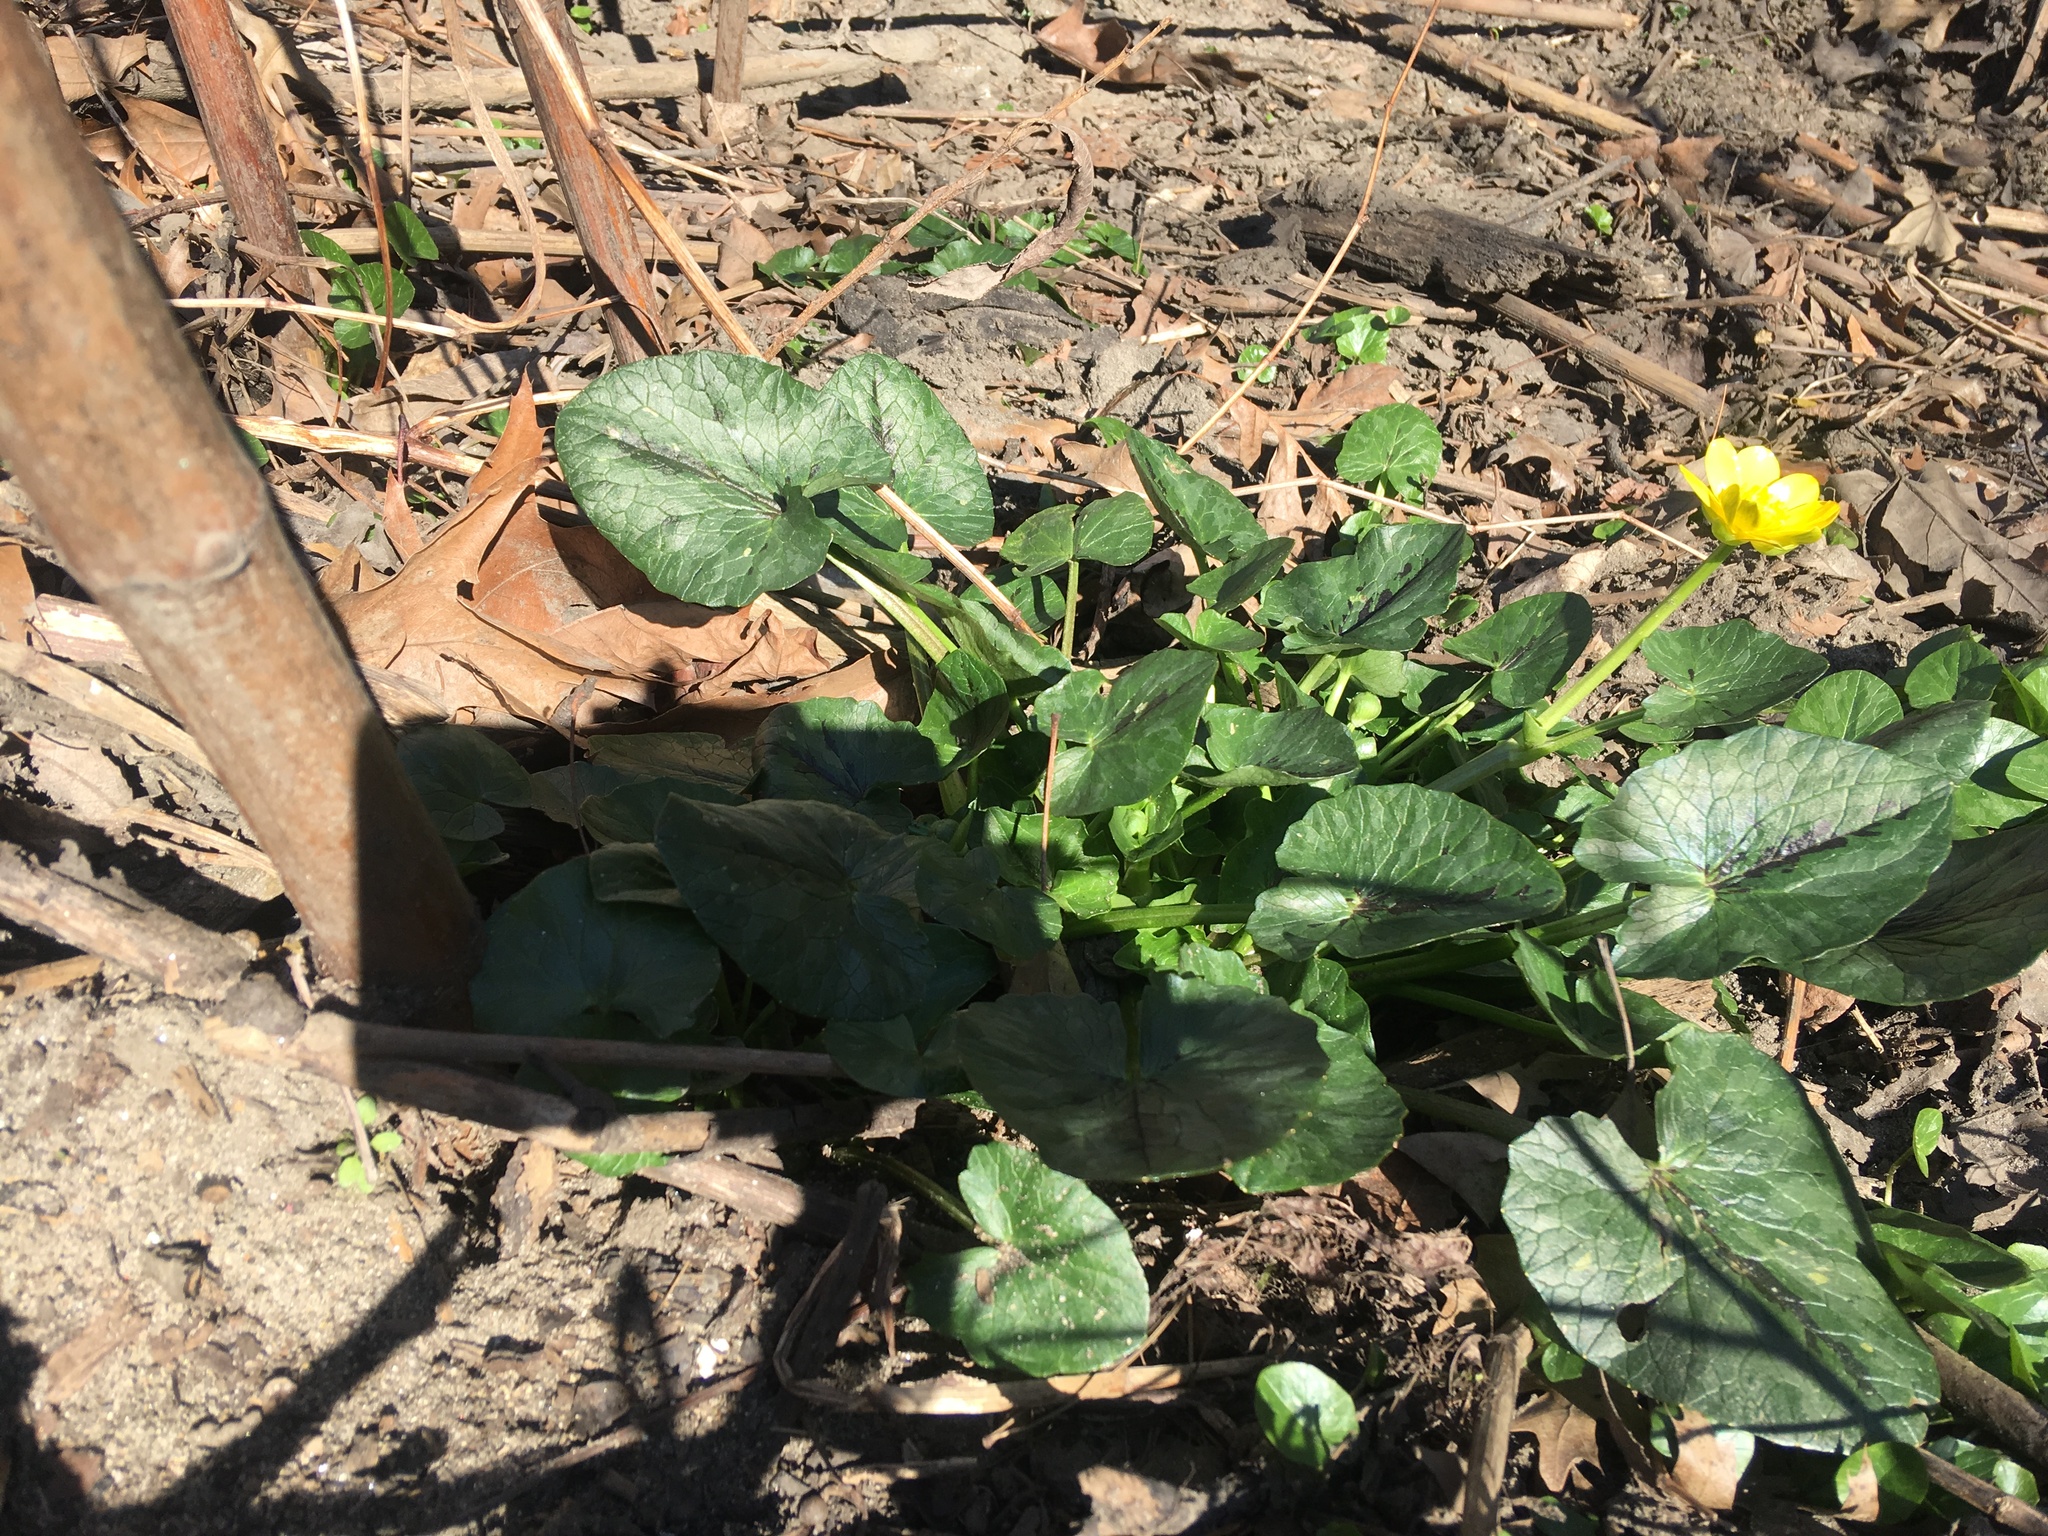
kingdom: Plantae
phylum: Tracheophyta
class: Magnoliopsida
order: Ranunculales
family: Ranunculaceae
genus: Ficaria
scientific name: Ficaria verna
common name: Lesser celandine
